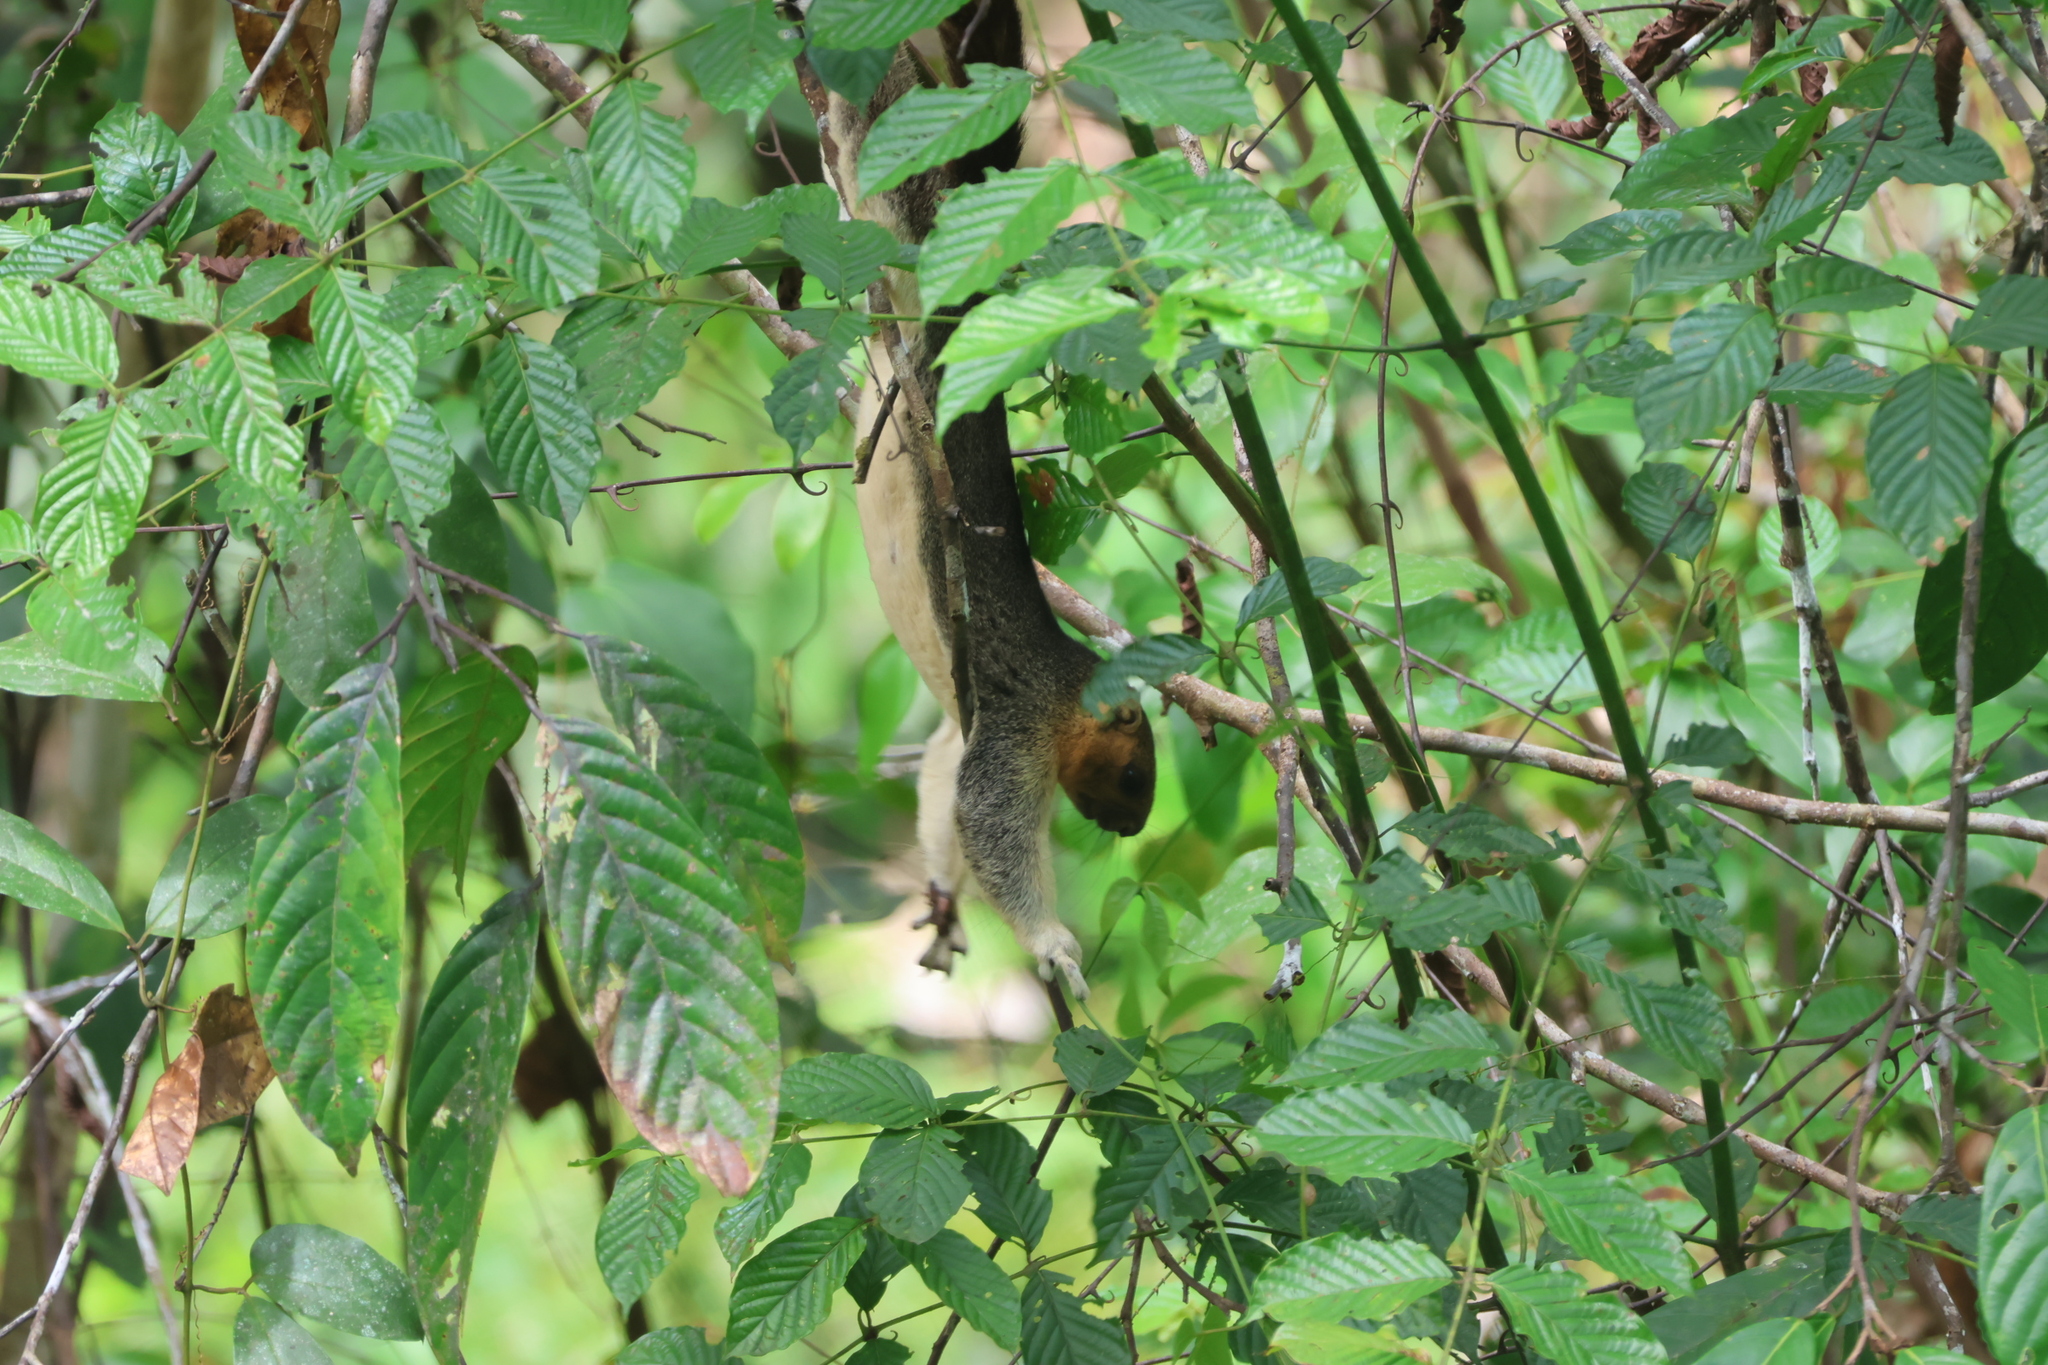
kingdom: Animalia
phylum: Chordata
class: Mammalia
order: Rodentia
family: Sciuridae
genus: Ratufa
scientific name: Ratufa affinis
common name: Pale giant squirrel
